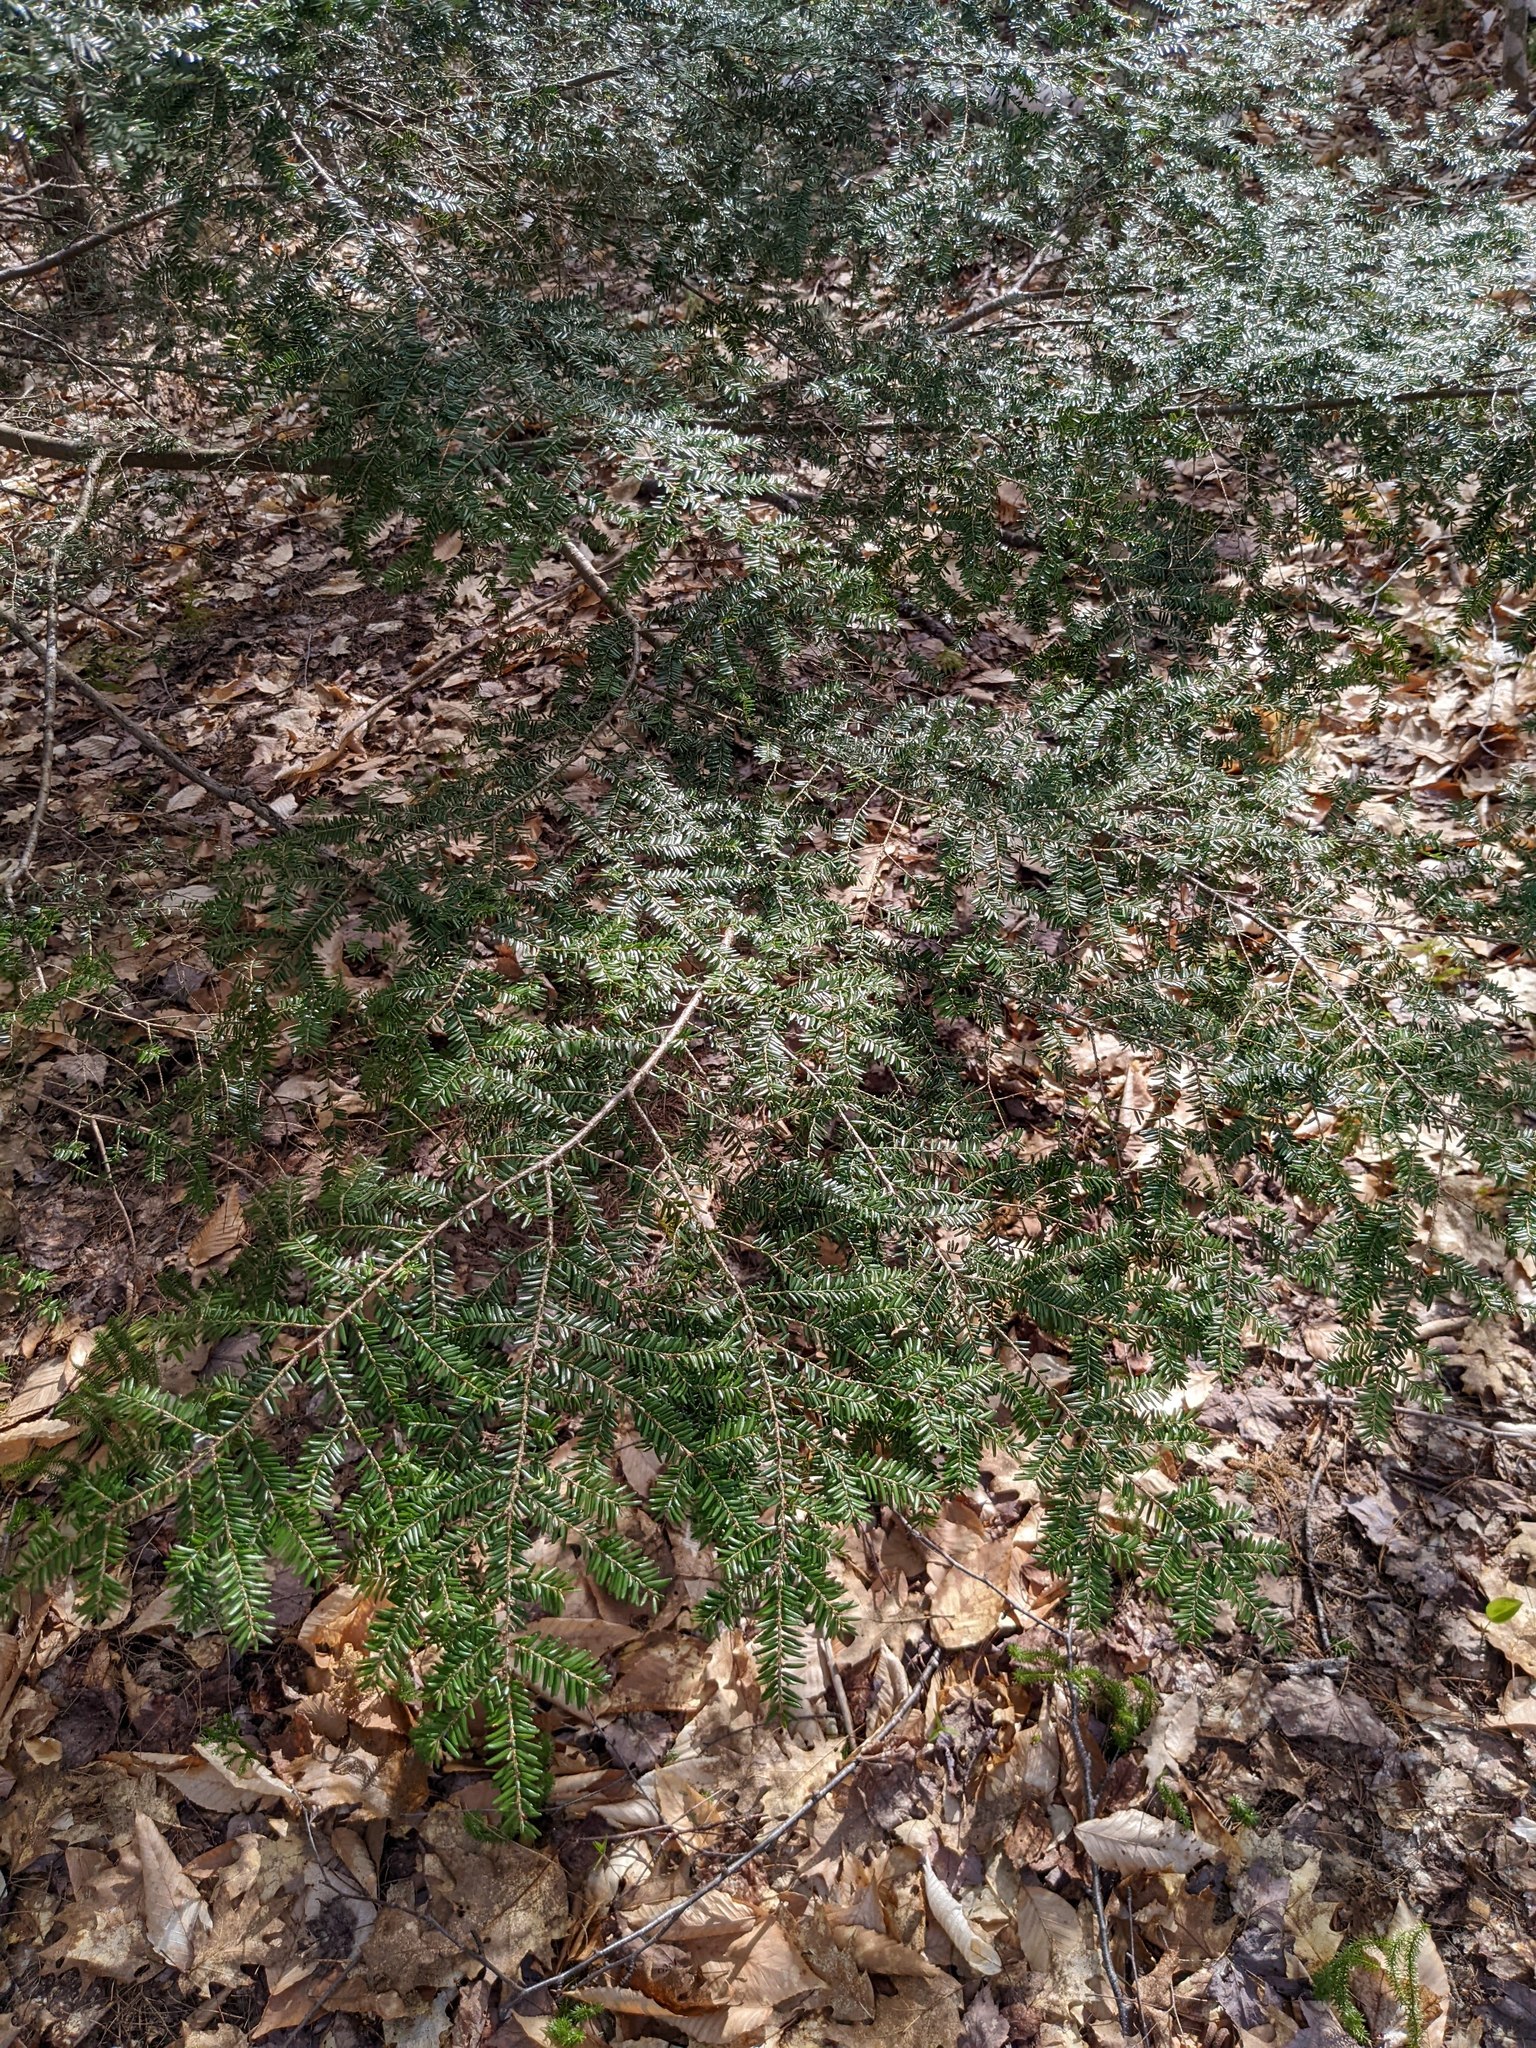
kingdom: Plantae
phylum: Tracheophyta
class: Pinopsida
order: Pinales
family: Pinaceae
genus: Tsuga
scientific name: Tsuga canadensis
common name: Eastern hemlock
